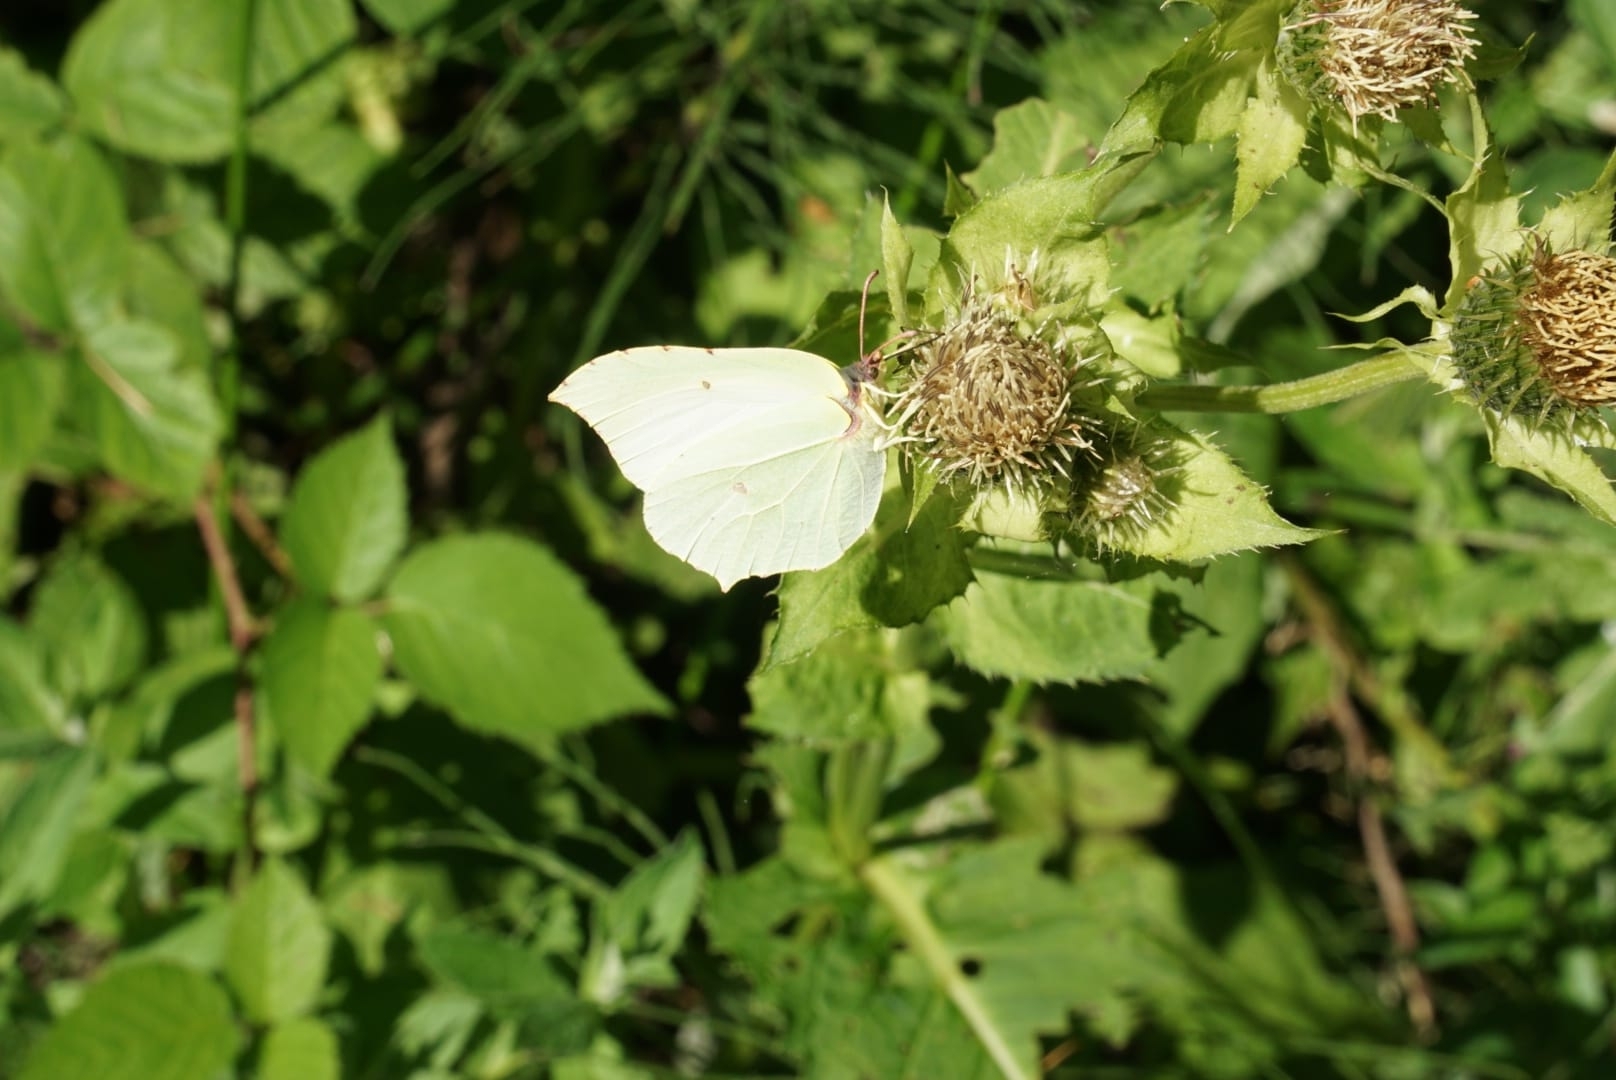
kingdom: Animalia
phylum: Arthropoda
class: Insecta
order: Lepidoptera
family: Pieridae
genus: Gonepteryx
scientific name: Gonepteryx rhamni
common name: Brimstone
